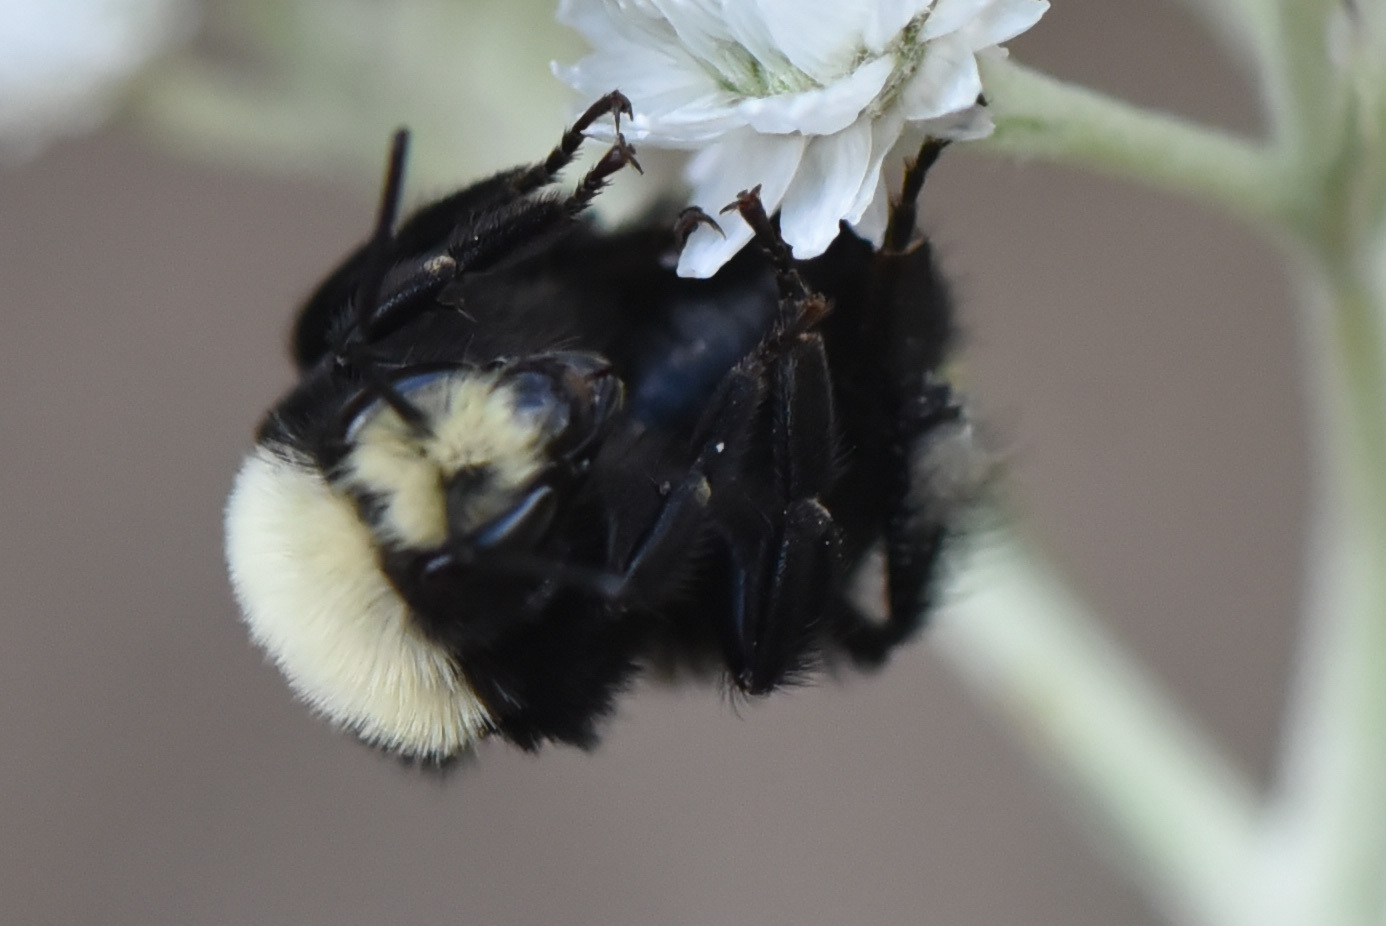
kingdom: Animalia
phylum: Arthropoda
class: Insecta
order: Hymenoptera
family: Apidae
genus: Bombus
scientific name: Bombus vosnesenskii
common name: Vosnesensky bumble bee
